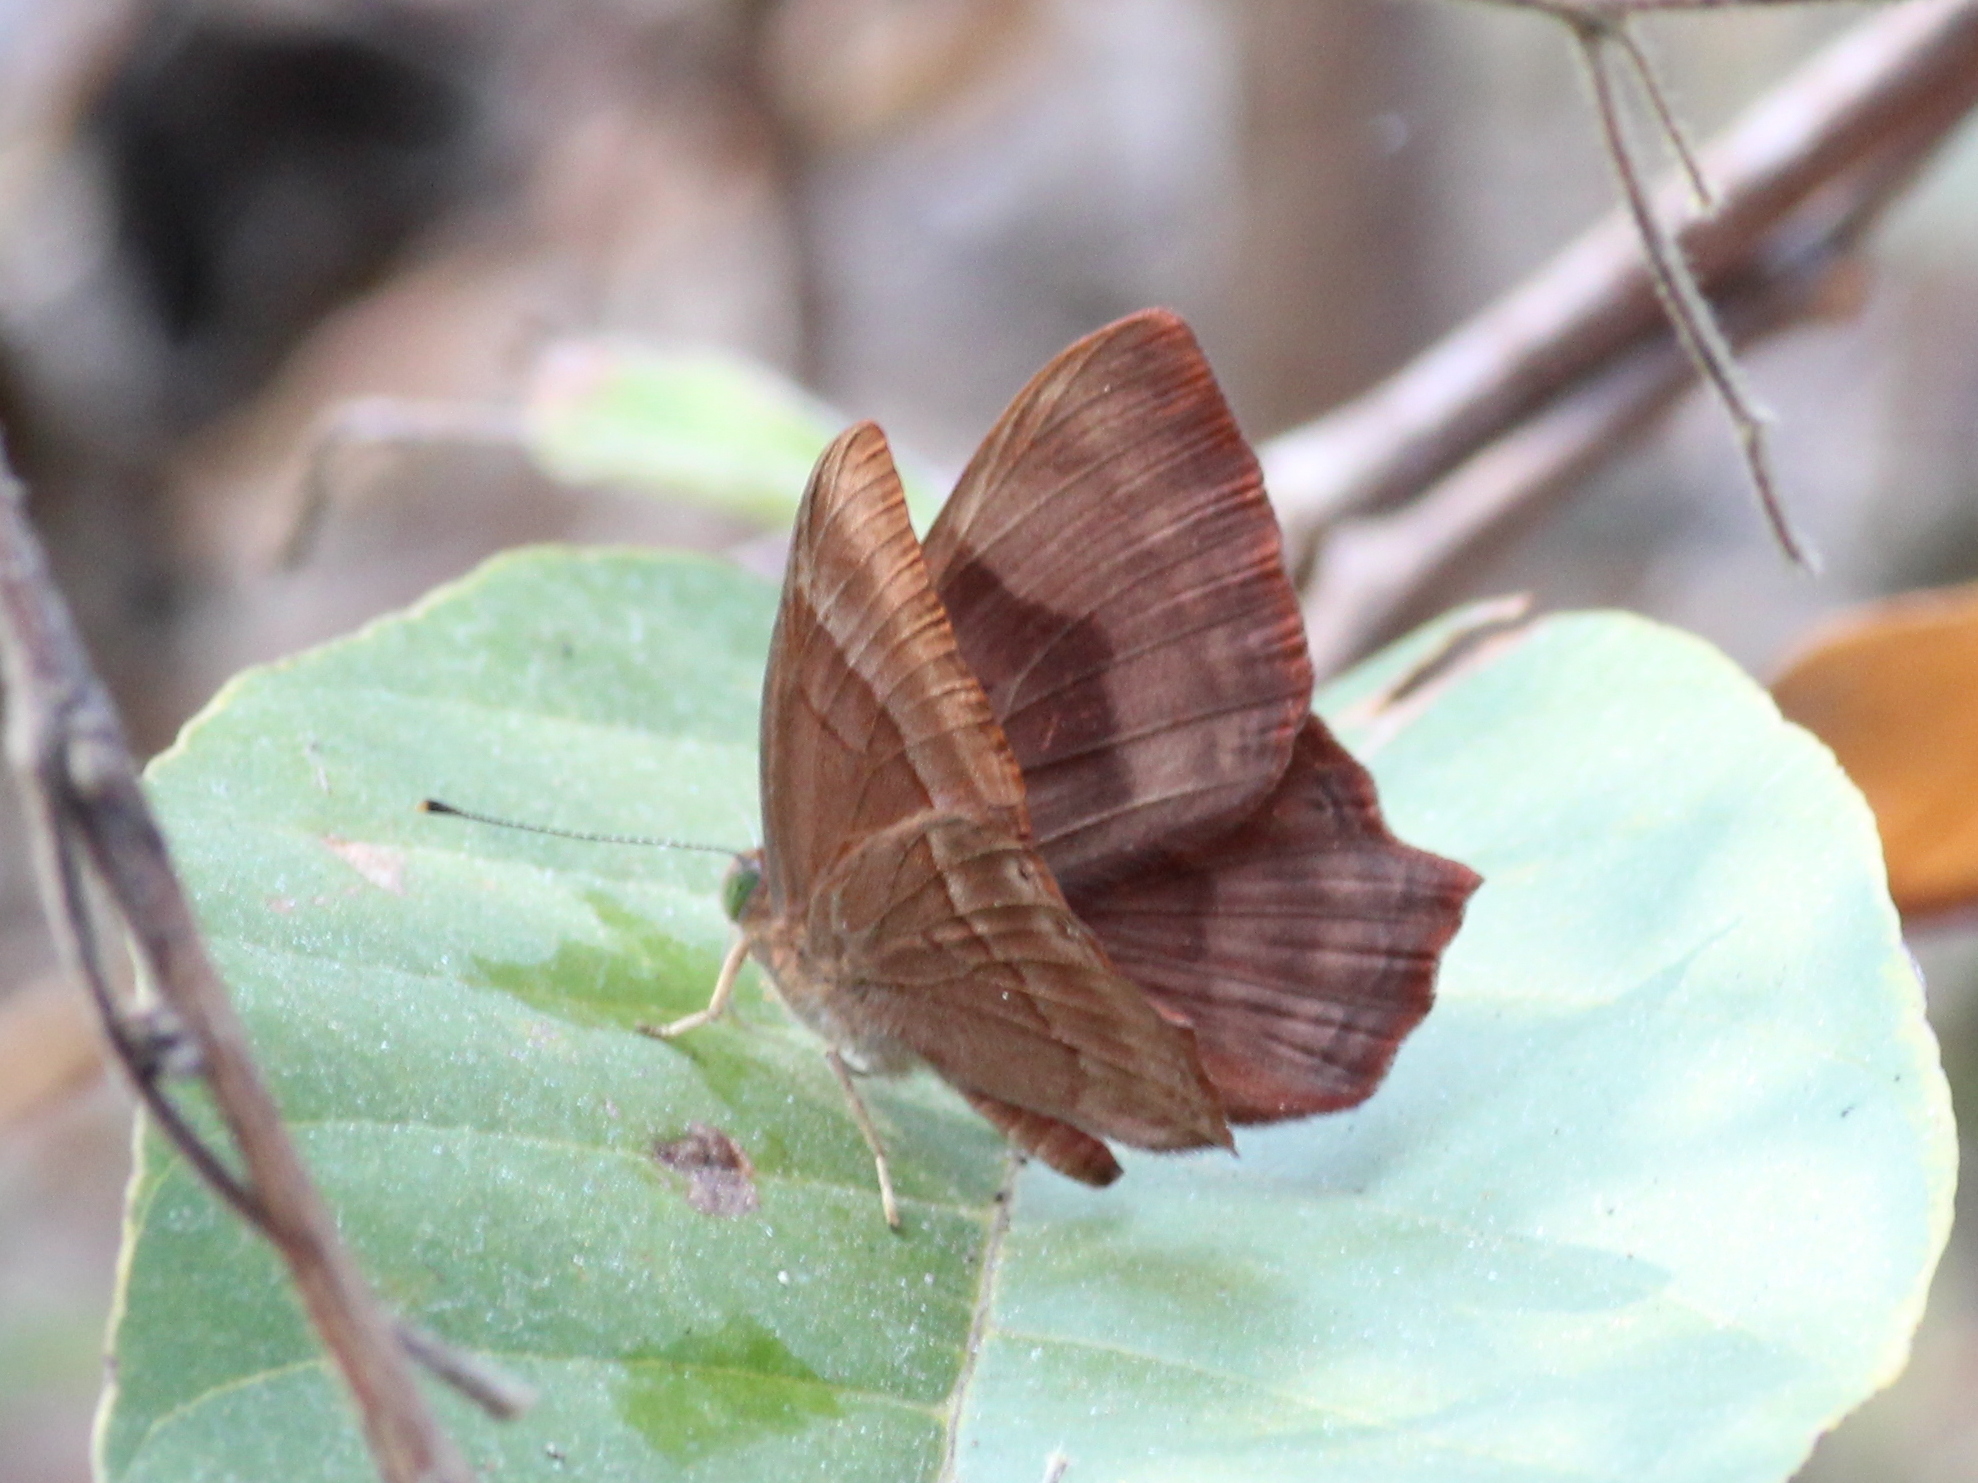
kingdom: Animalia
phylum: Arthropoda
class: Insecta
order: Lepidoptera
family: Lycaenidae
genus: Abisara
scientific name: Abisara bifasciata
